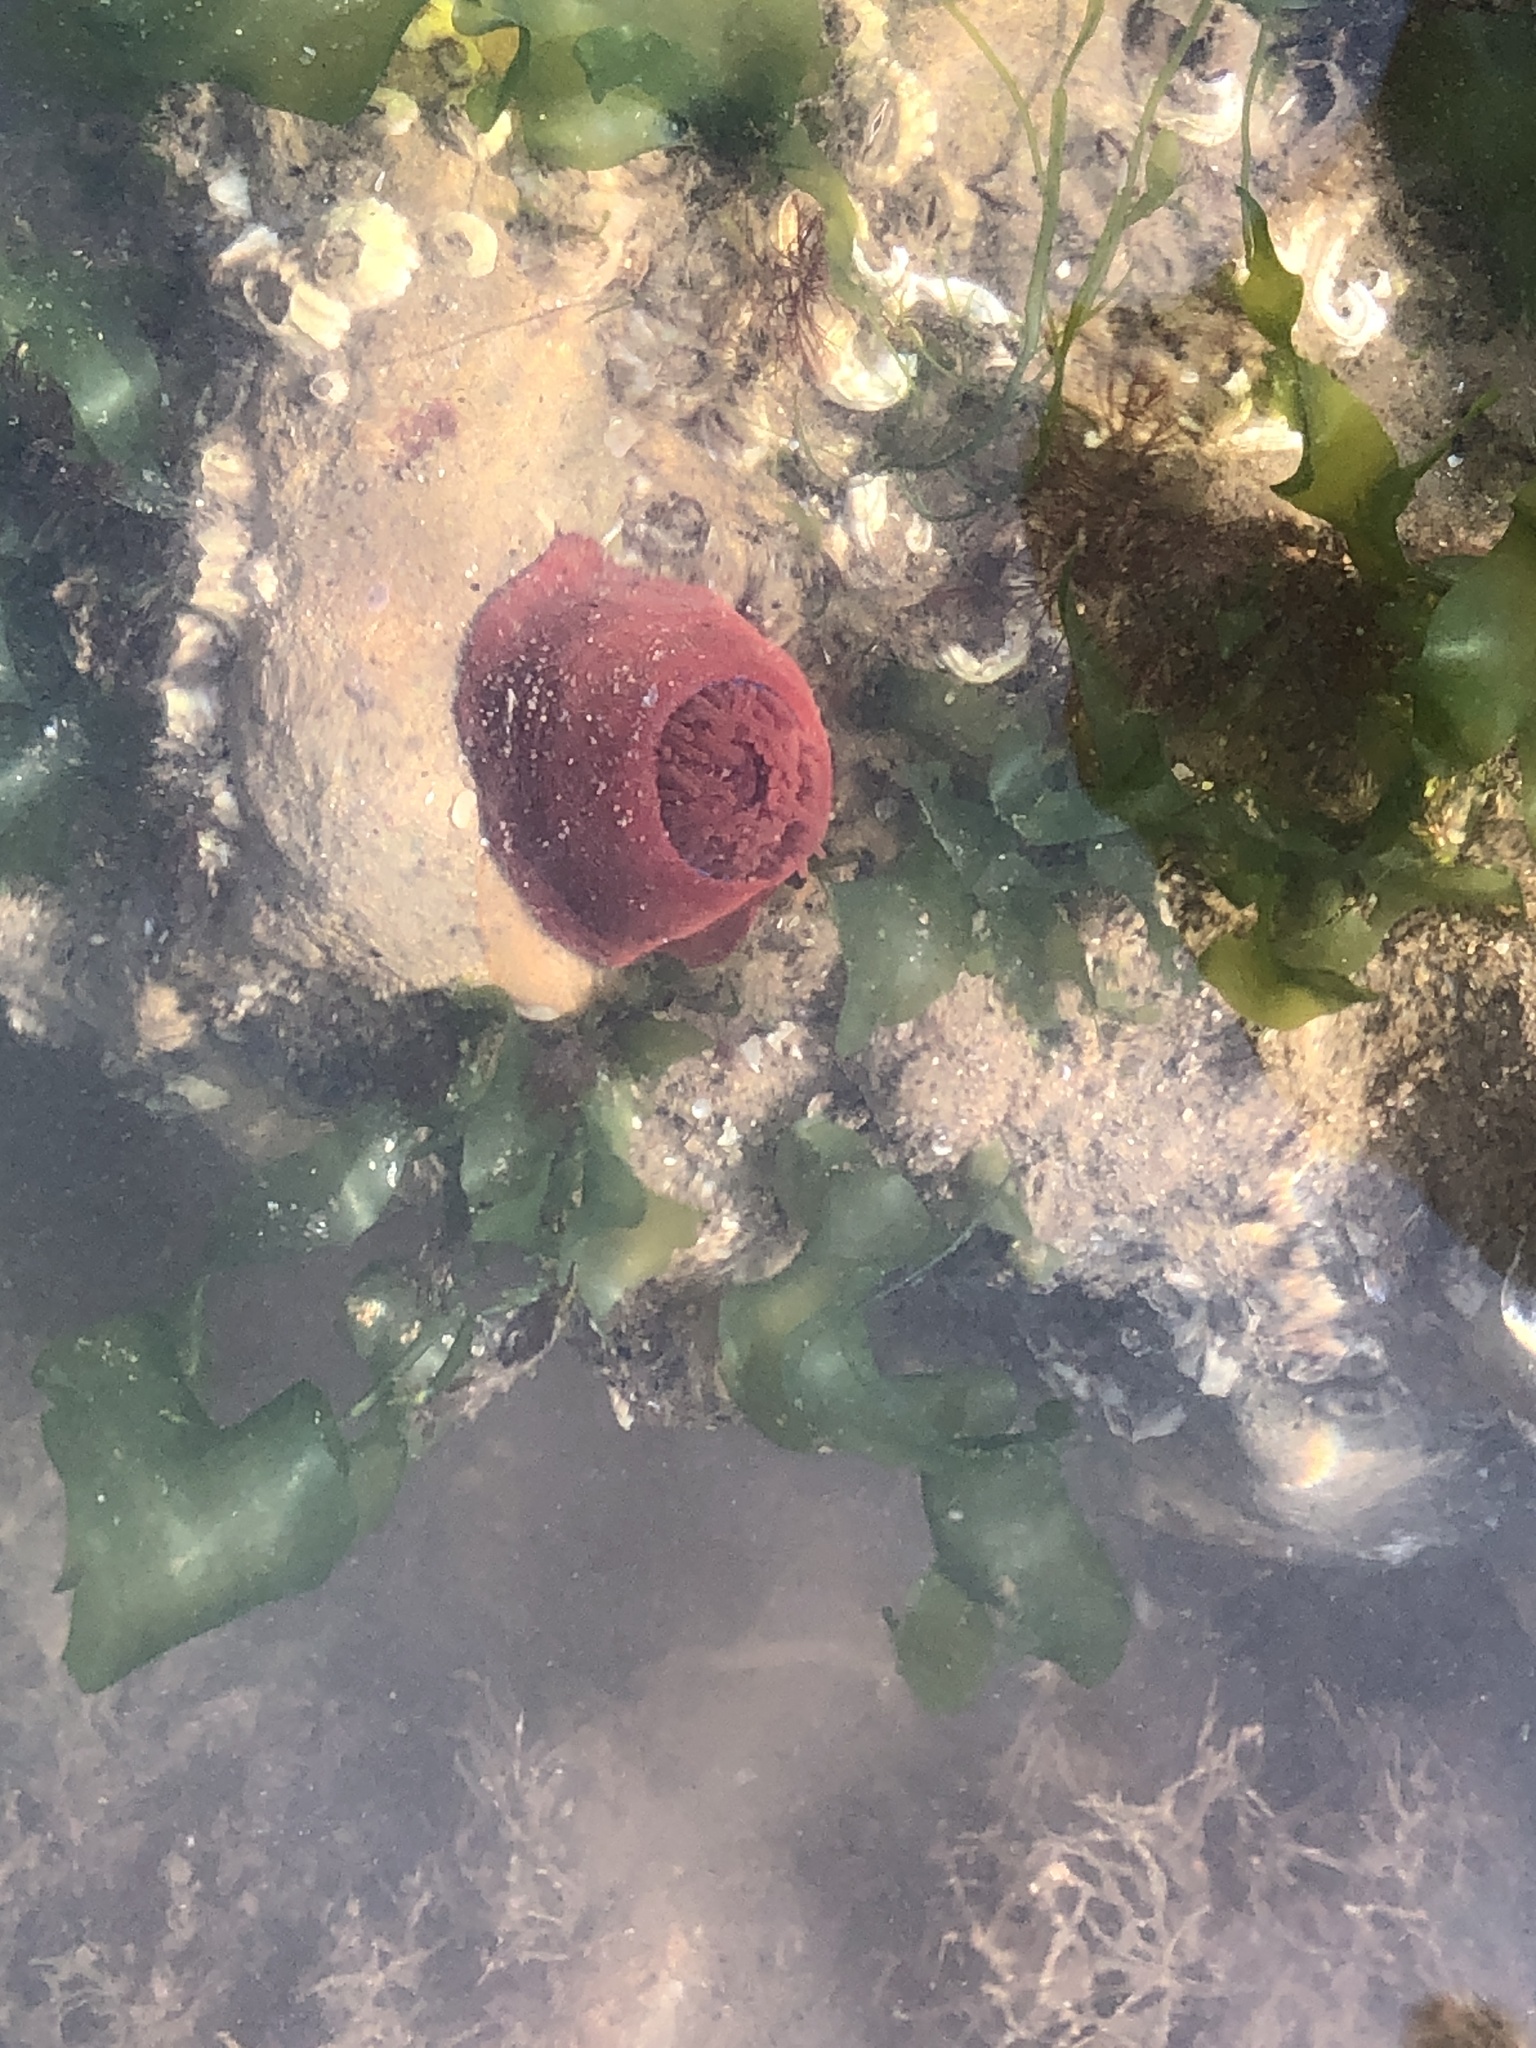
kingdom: Animalia
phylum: Cnidaria
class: Anthozoa
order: Actiniaria
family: Actiniidae
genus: Actinia
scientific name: Actinia equina
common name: Beadlet anemone
